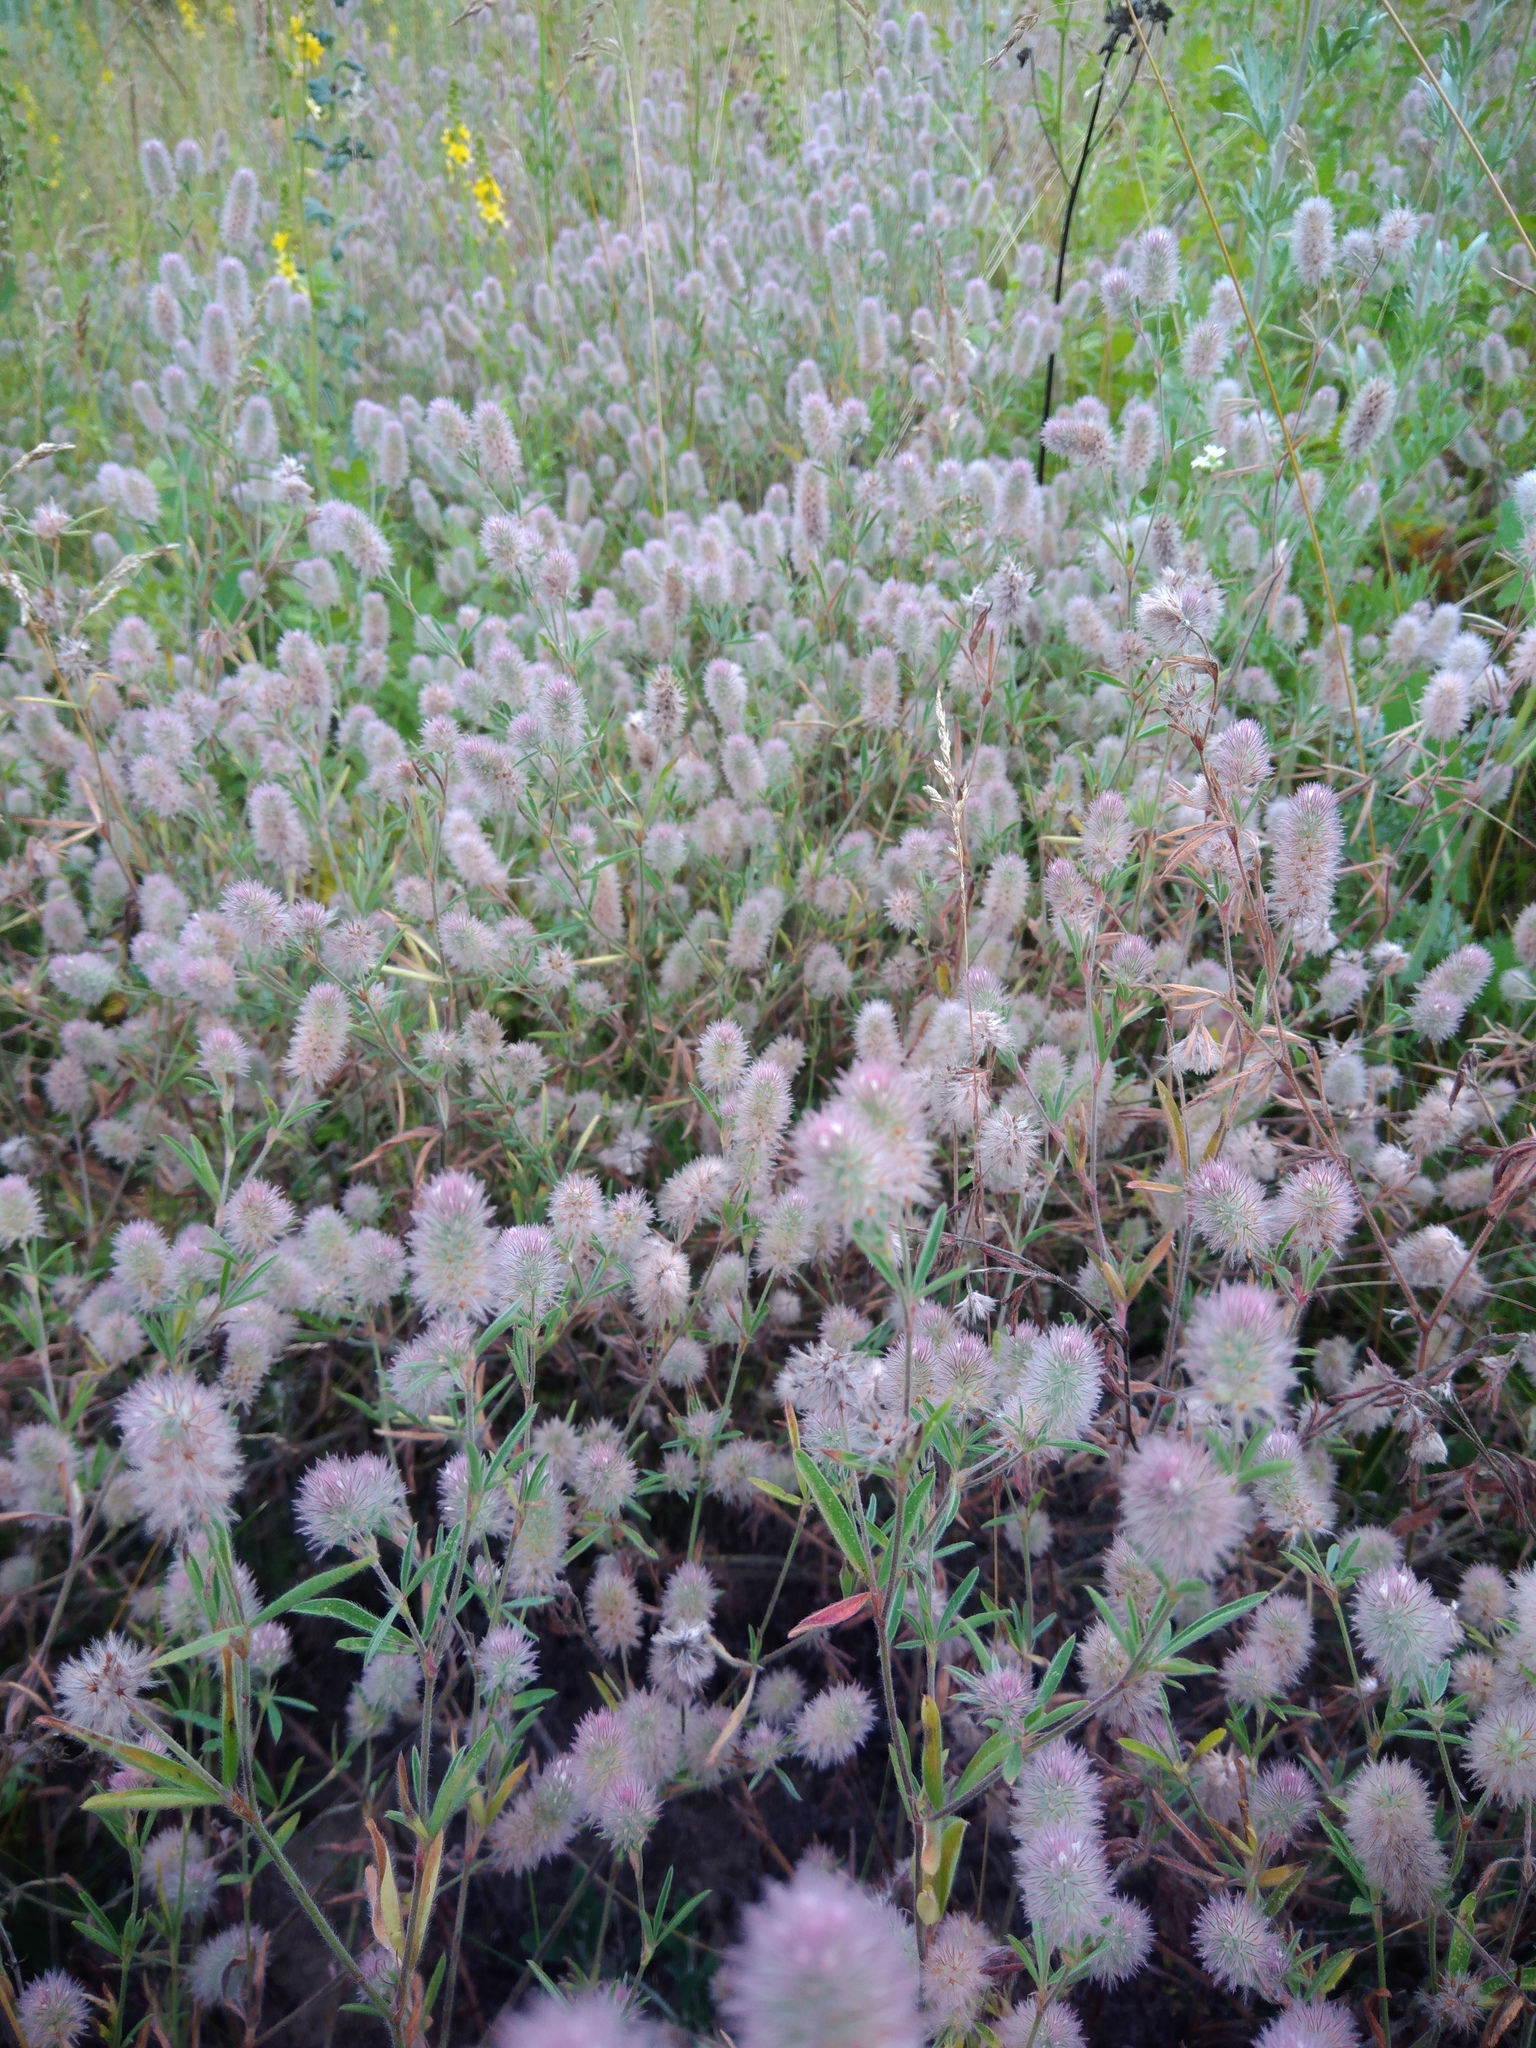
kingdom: Plantae
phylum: Tracheophyta
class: Magnoliopsida
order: Fabales
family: Fabaceae
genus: Trifolium
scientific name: Trifolium arvense
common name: Hare's-foot clover
